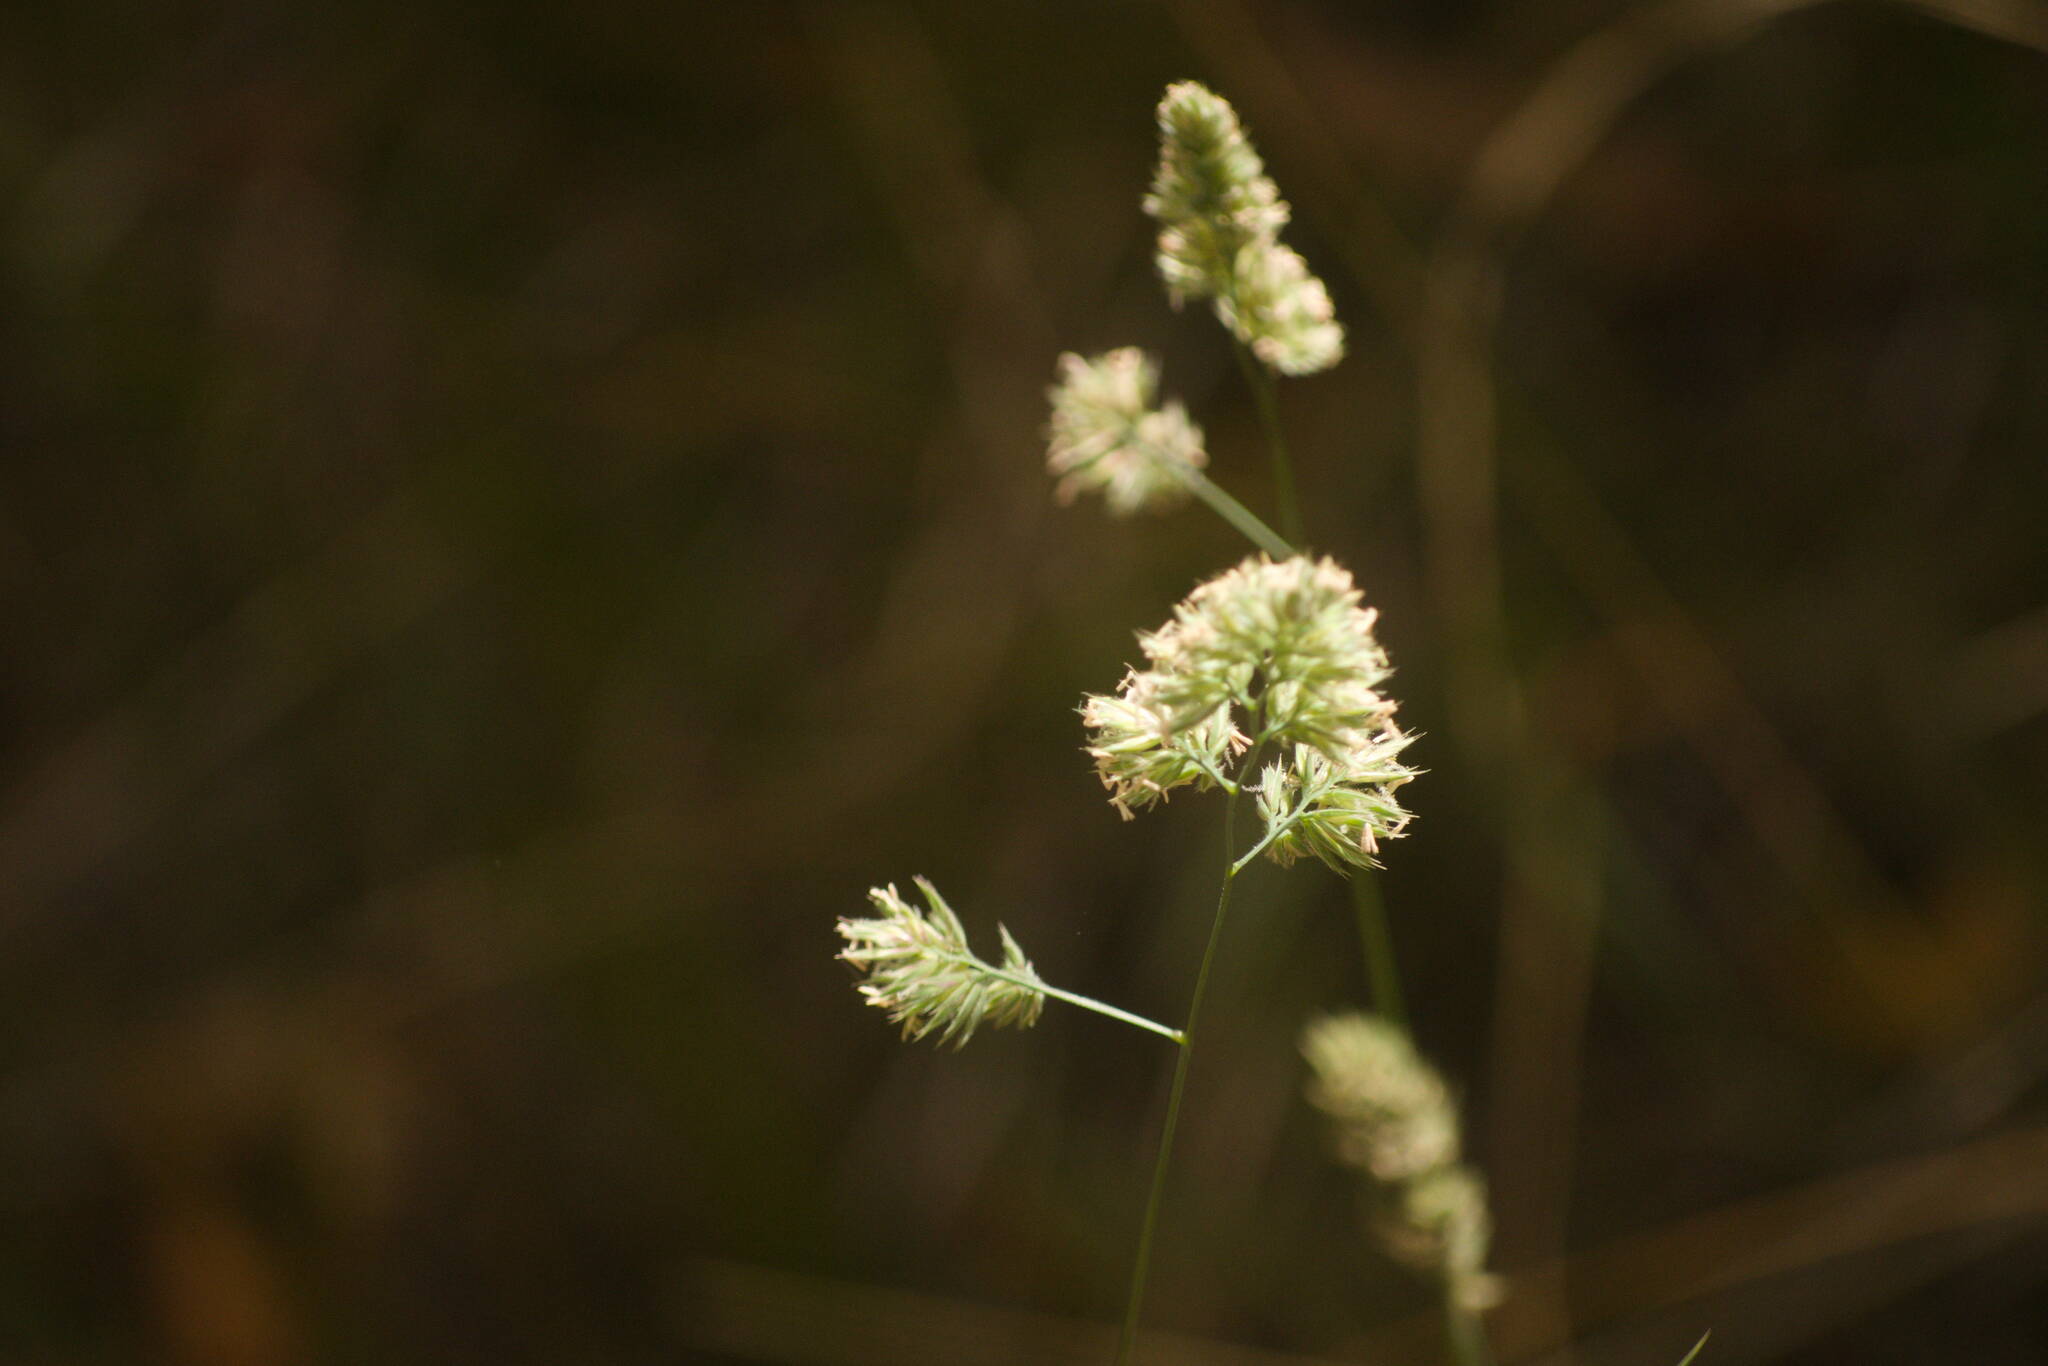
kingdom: Plantae
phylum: Tracheophyta
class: Liliopsida
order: Poales
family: Poaceae
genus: Dactylis
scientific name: Dactylis glomerata
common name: Orchardgrass
